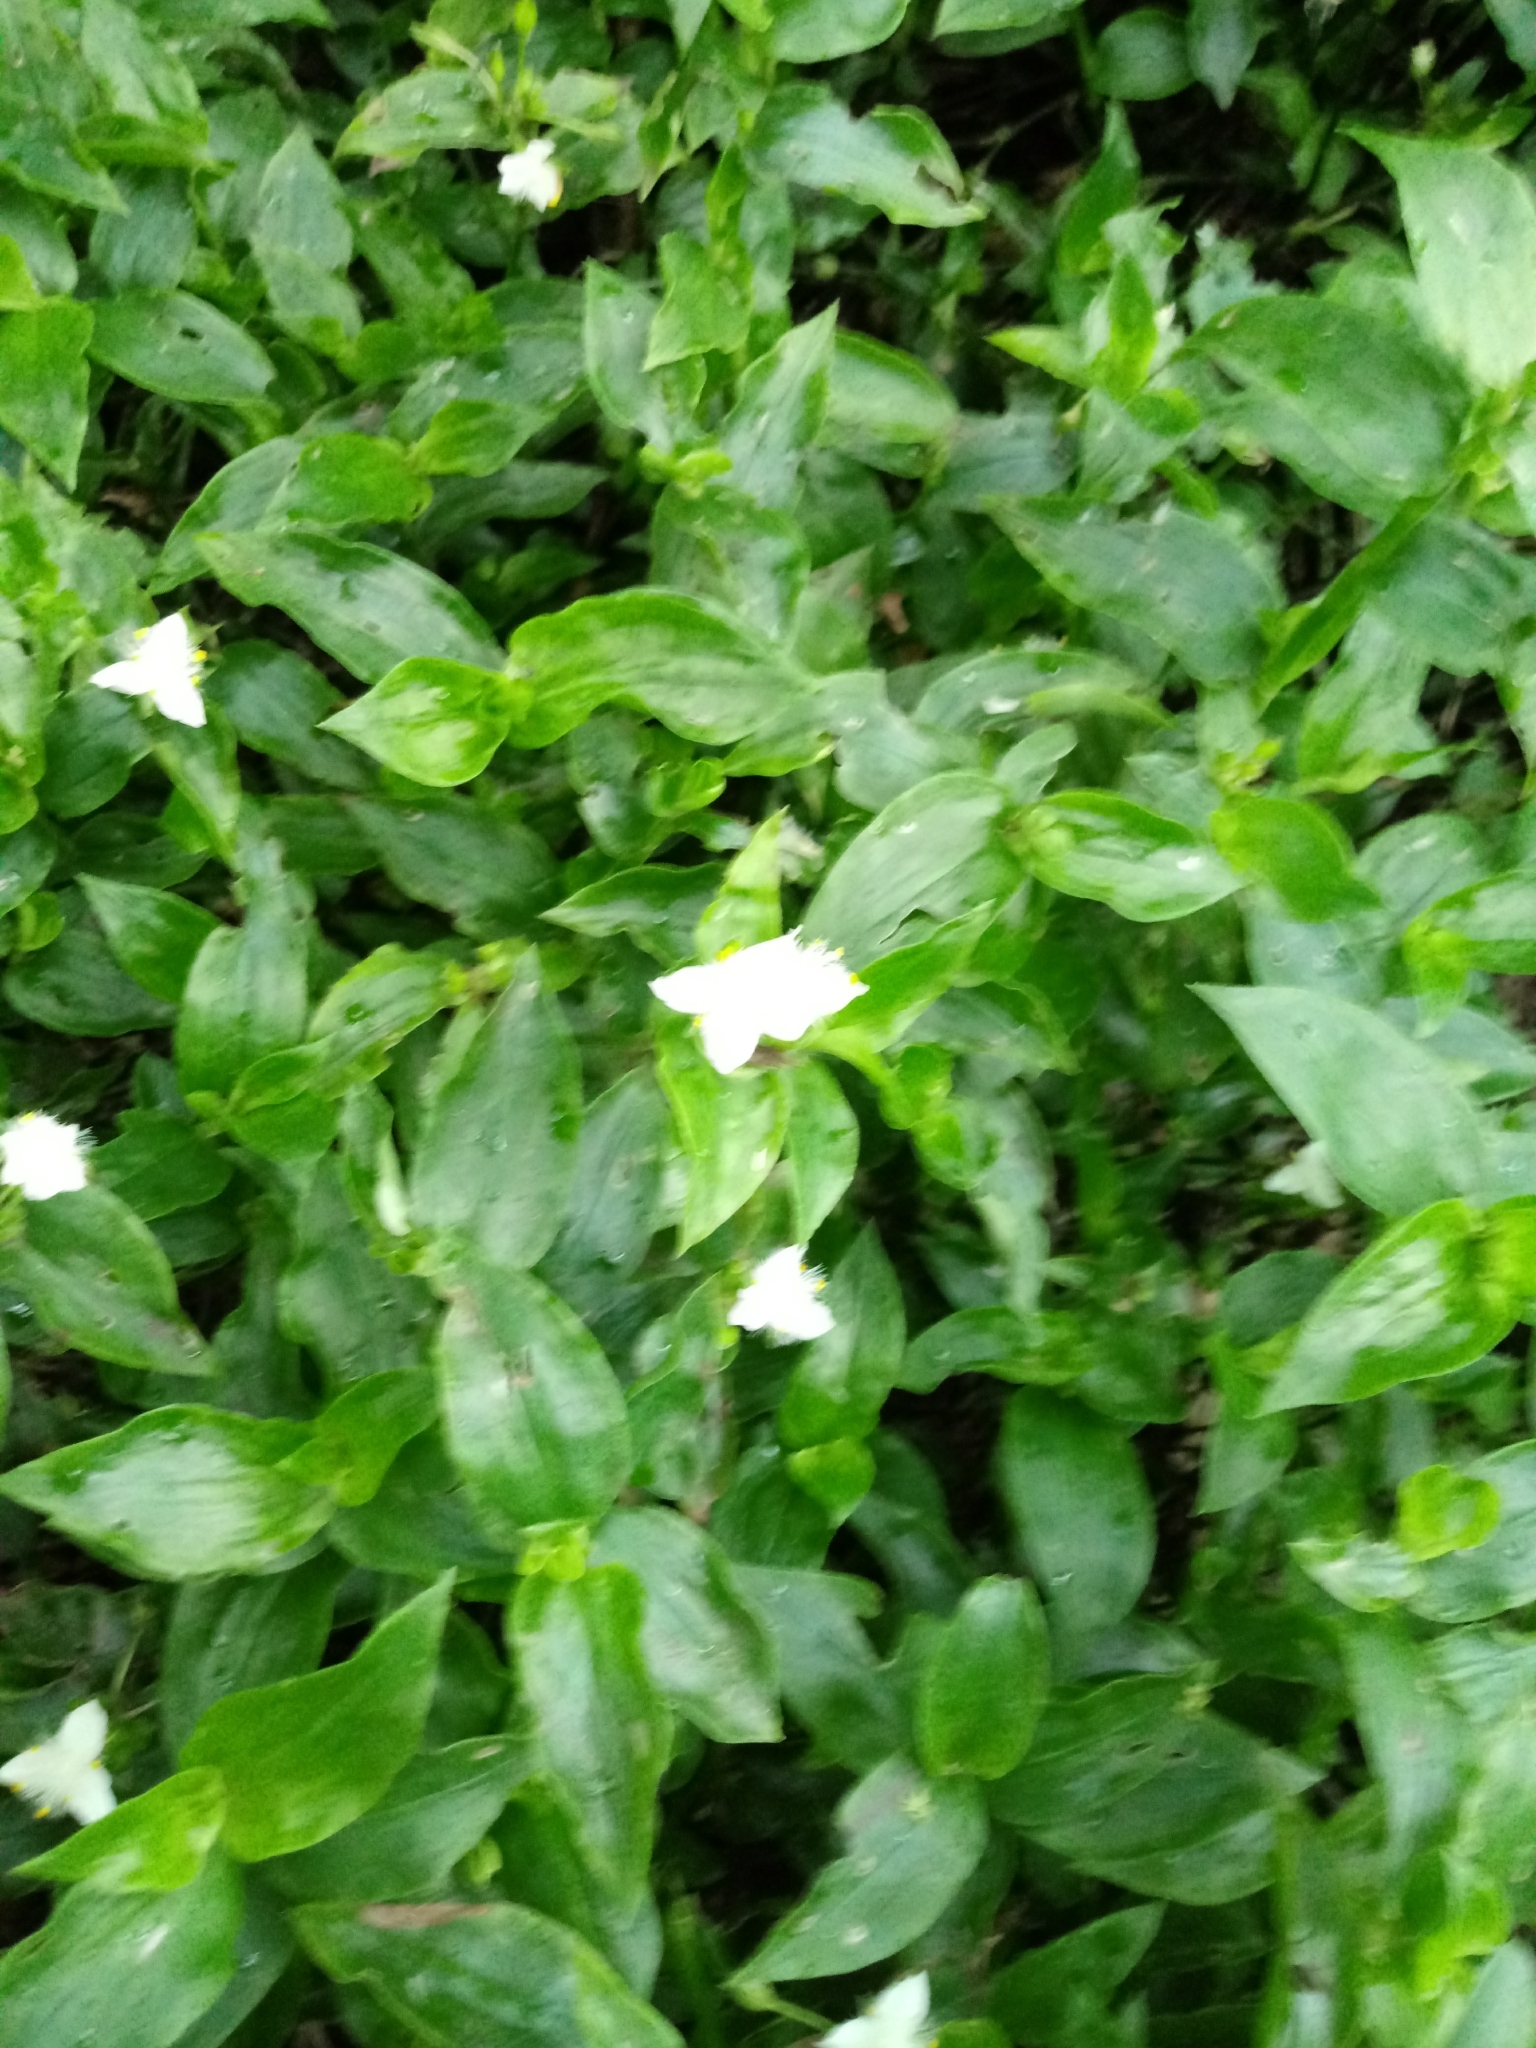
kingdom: Plantae
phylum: Tracheophyta
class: Liliopsida
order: Commelinales
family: Commelinaceae
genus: Tradescantia
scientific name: Tradescantia fluminensis
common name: Wandering-jew
